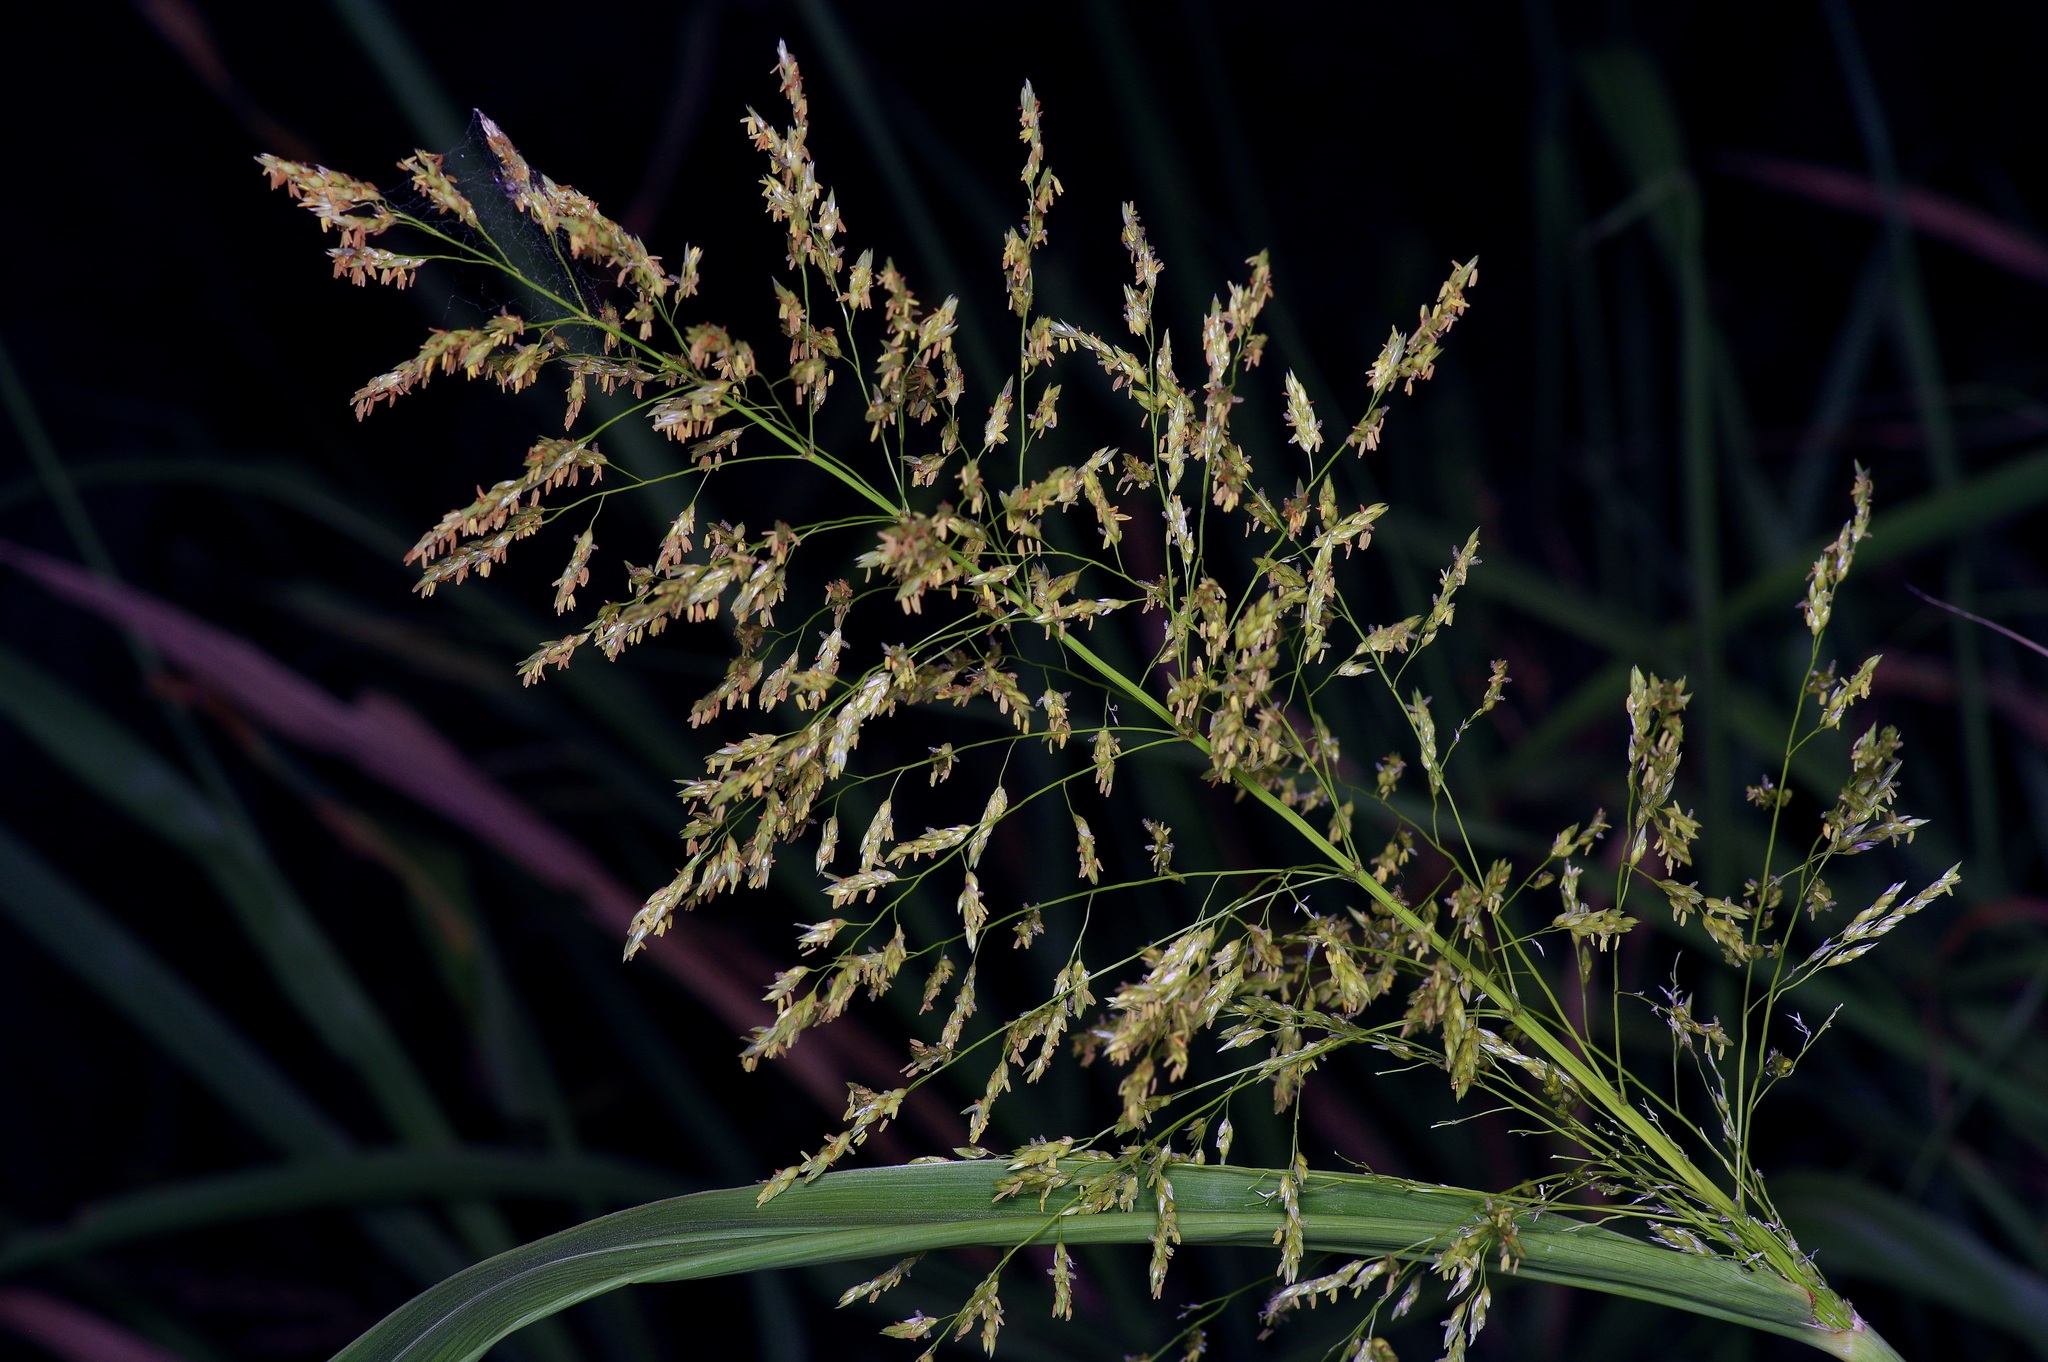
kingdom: Plantae
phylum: Tracheophyta
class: Liliopsida
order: Poales
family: Poaceae
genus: Sorghum
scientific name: Sorghum halepense
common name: Johnson-grass
